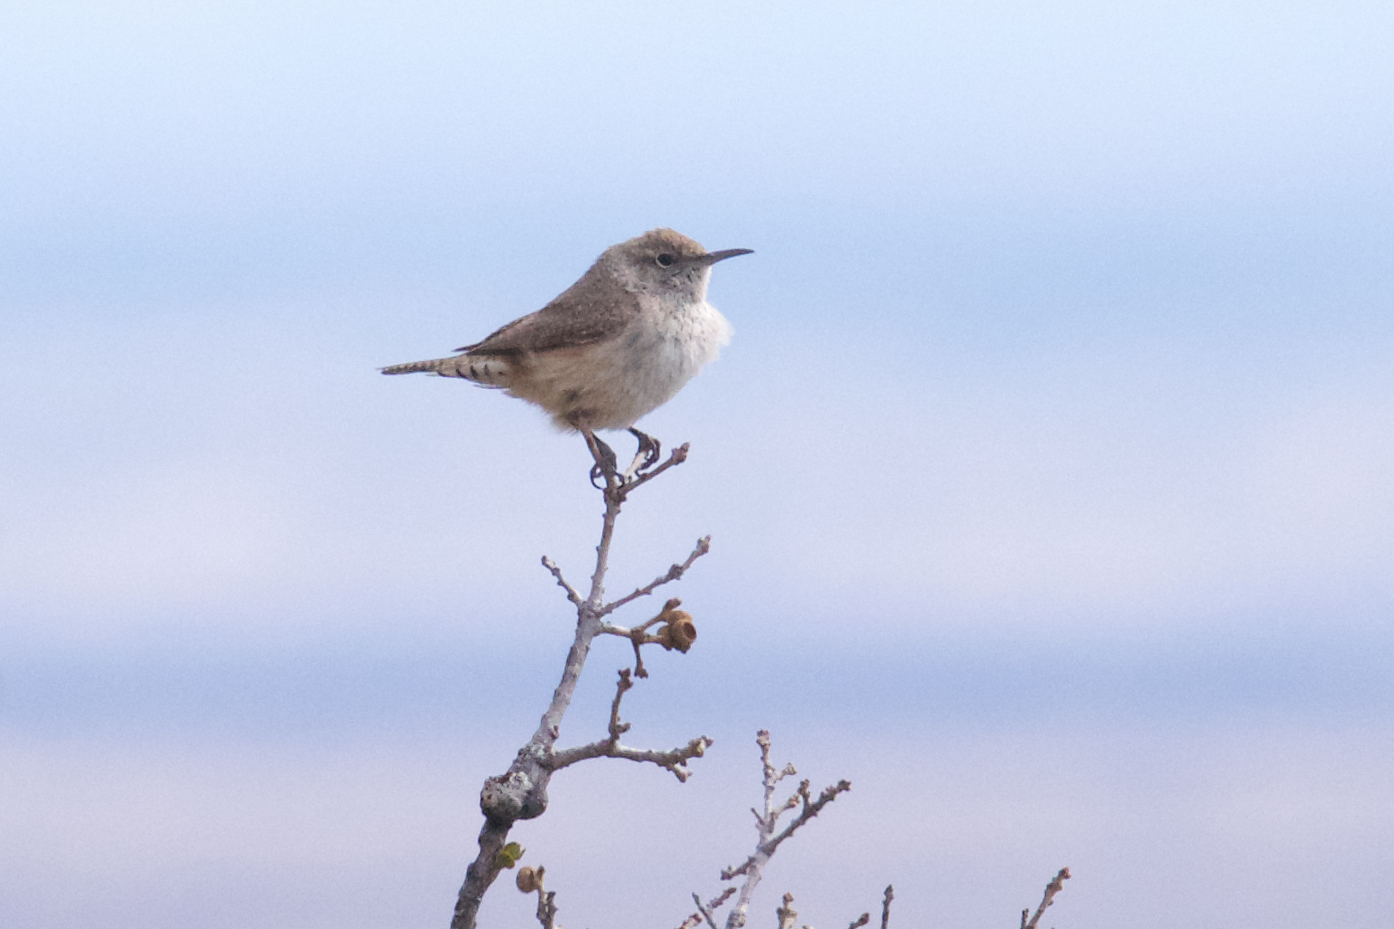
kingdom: Animalia
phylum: Chordata
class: Aves
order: Passeriformes
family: Troglodytidae
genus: Salpinctes
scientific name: Salpinctes obsoletus
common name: Rock wren
